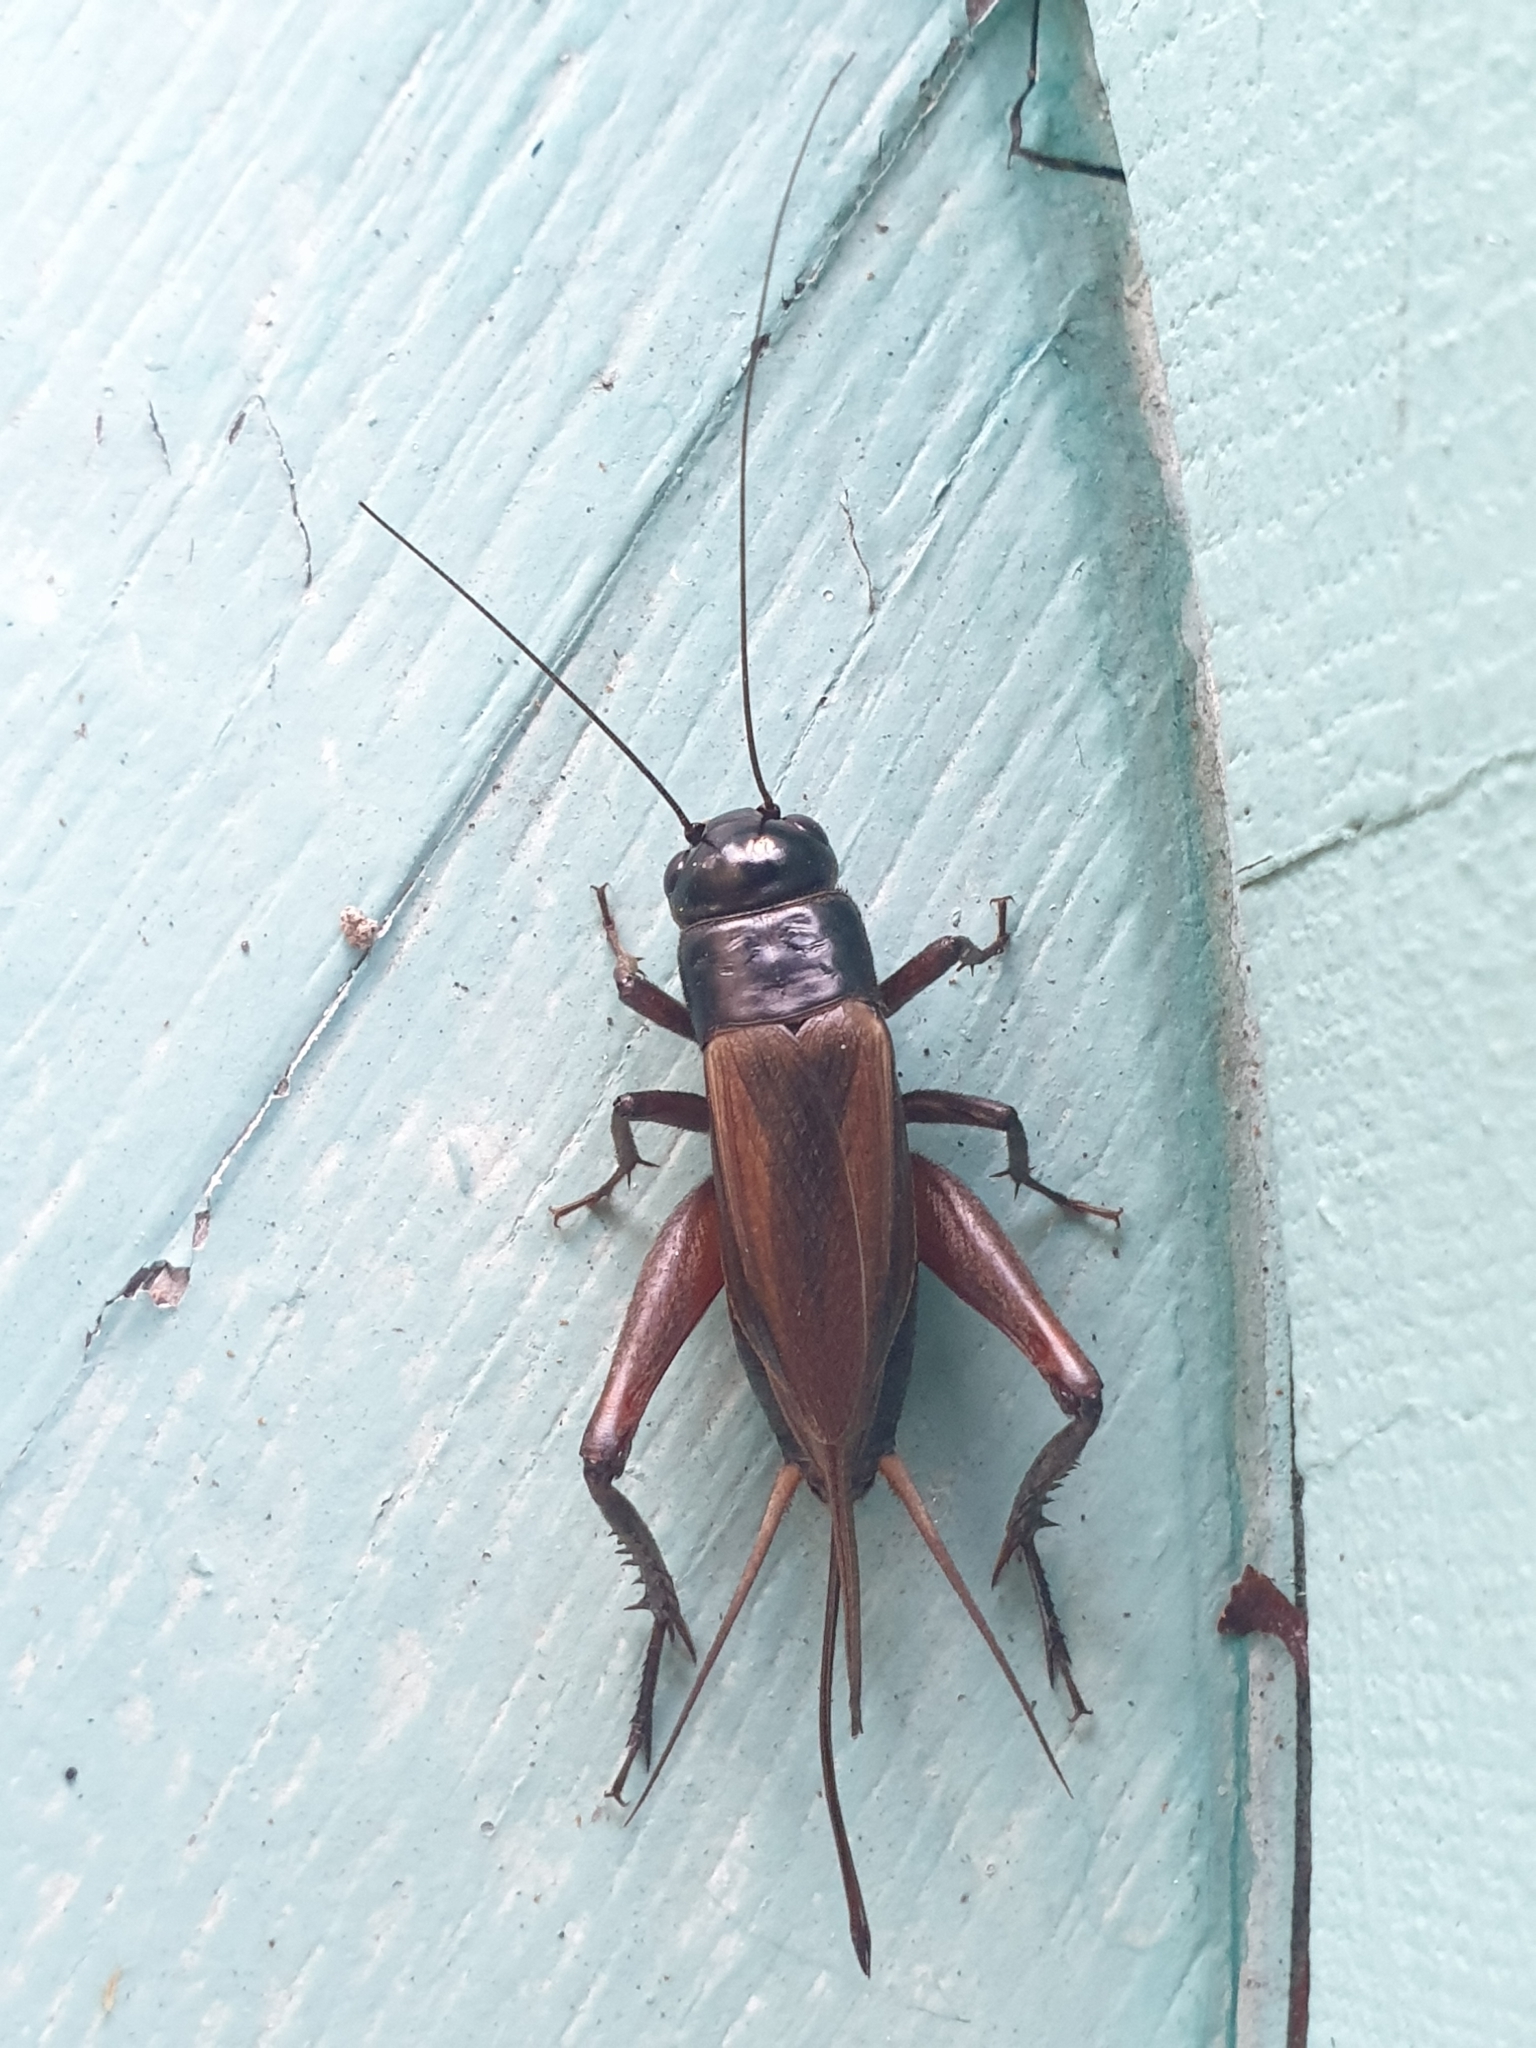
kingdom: Animalia
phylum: Arthropoda
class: Insecta
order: Orthoptera
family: Gryllidae
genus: Teleogryllus
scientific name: Teleogryllus commodus
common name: Black field cricket
